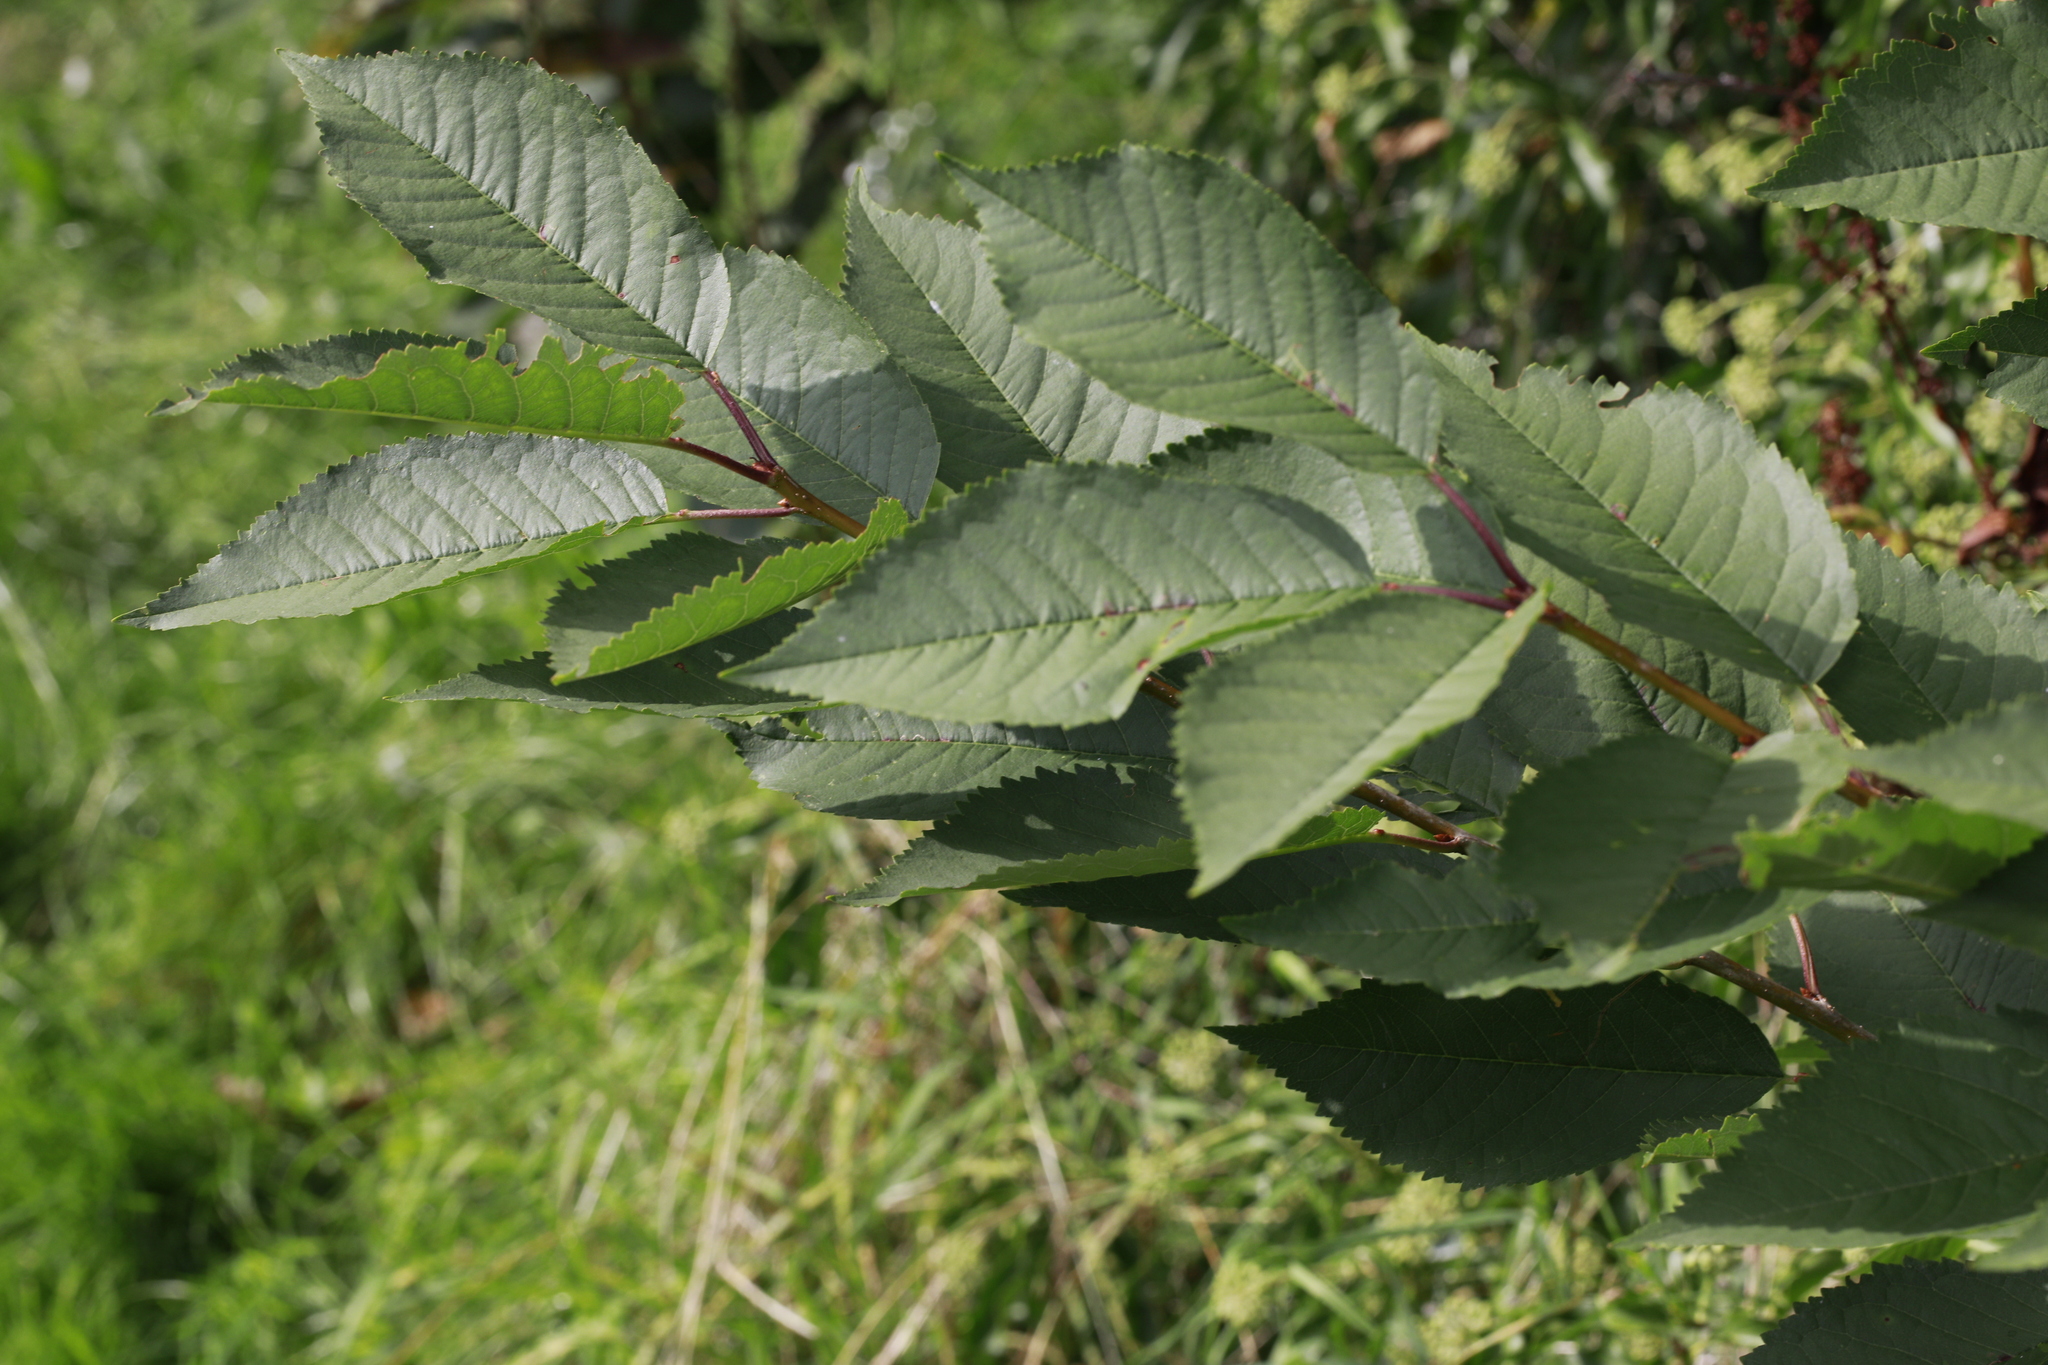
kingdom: Plantae
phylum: Tracheophyta
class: Magnoliopsida
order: Rosales
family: Rosaceae
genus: Prunus
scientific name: Prunus avium
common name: Sweet cherry
